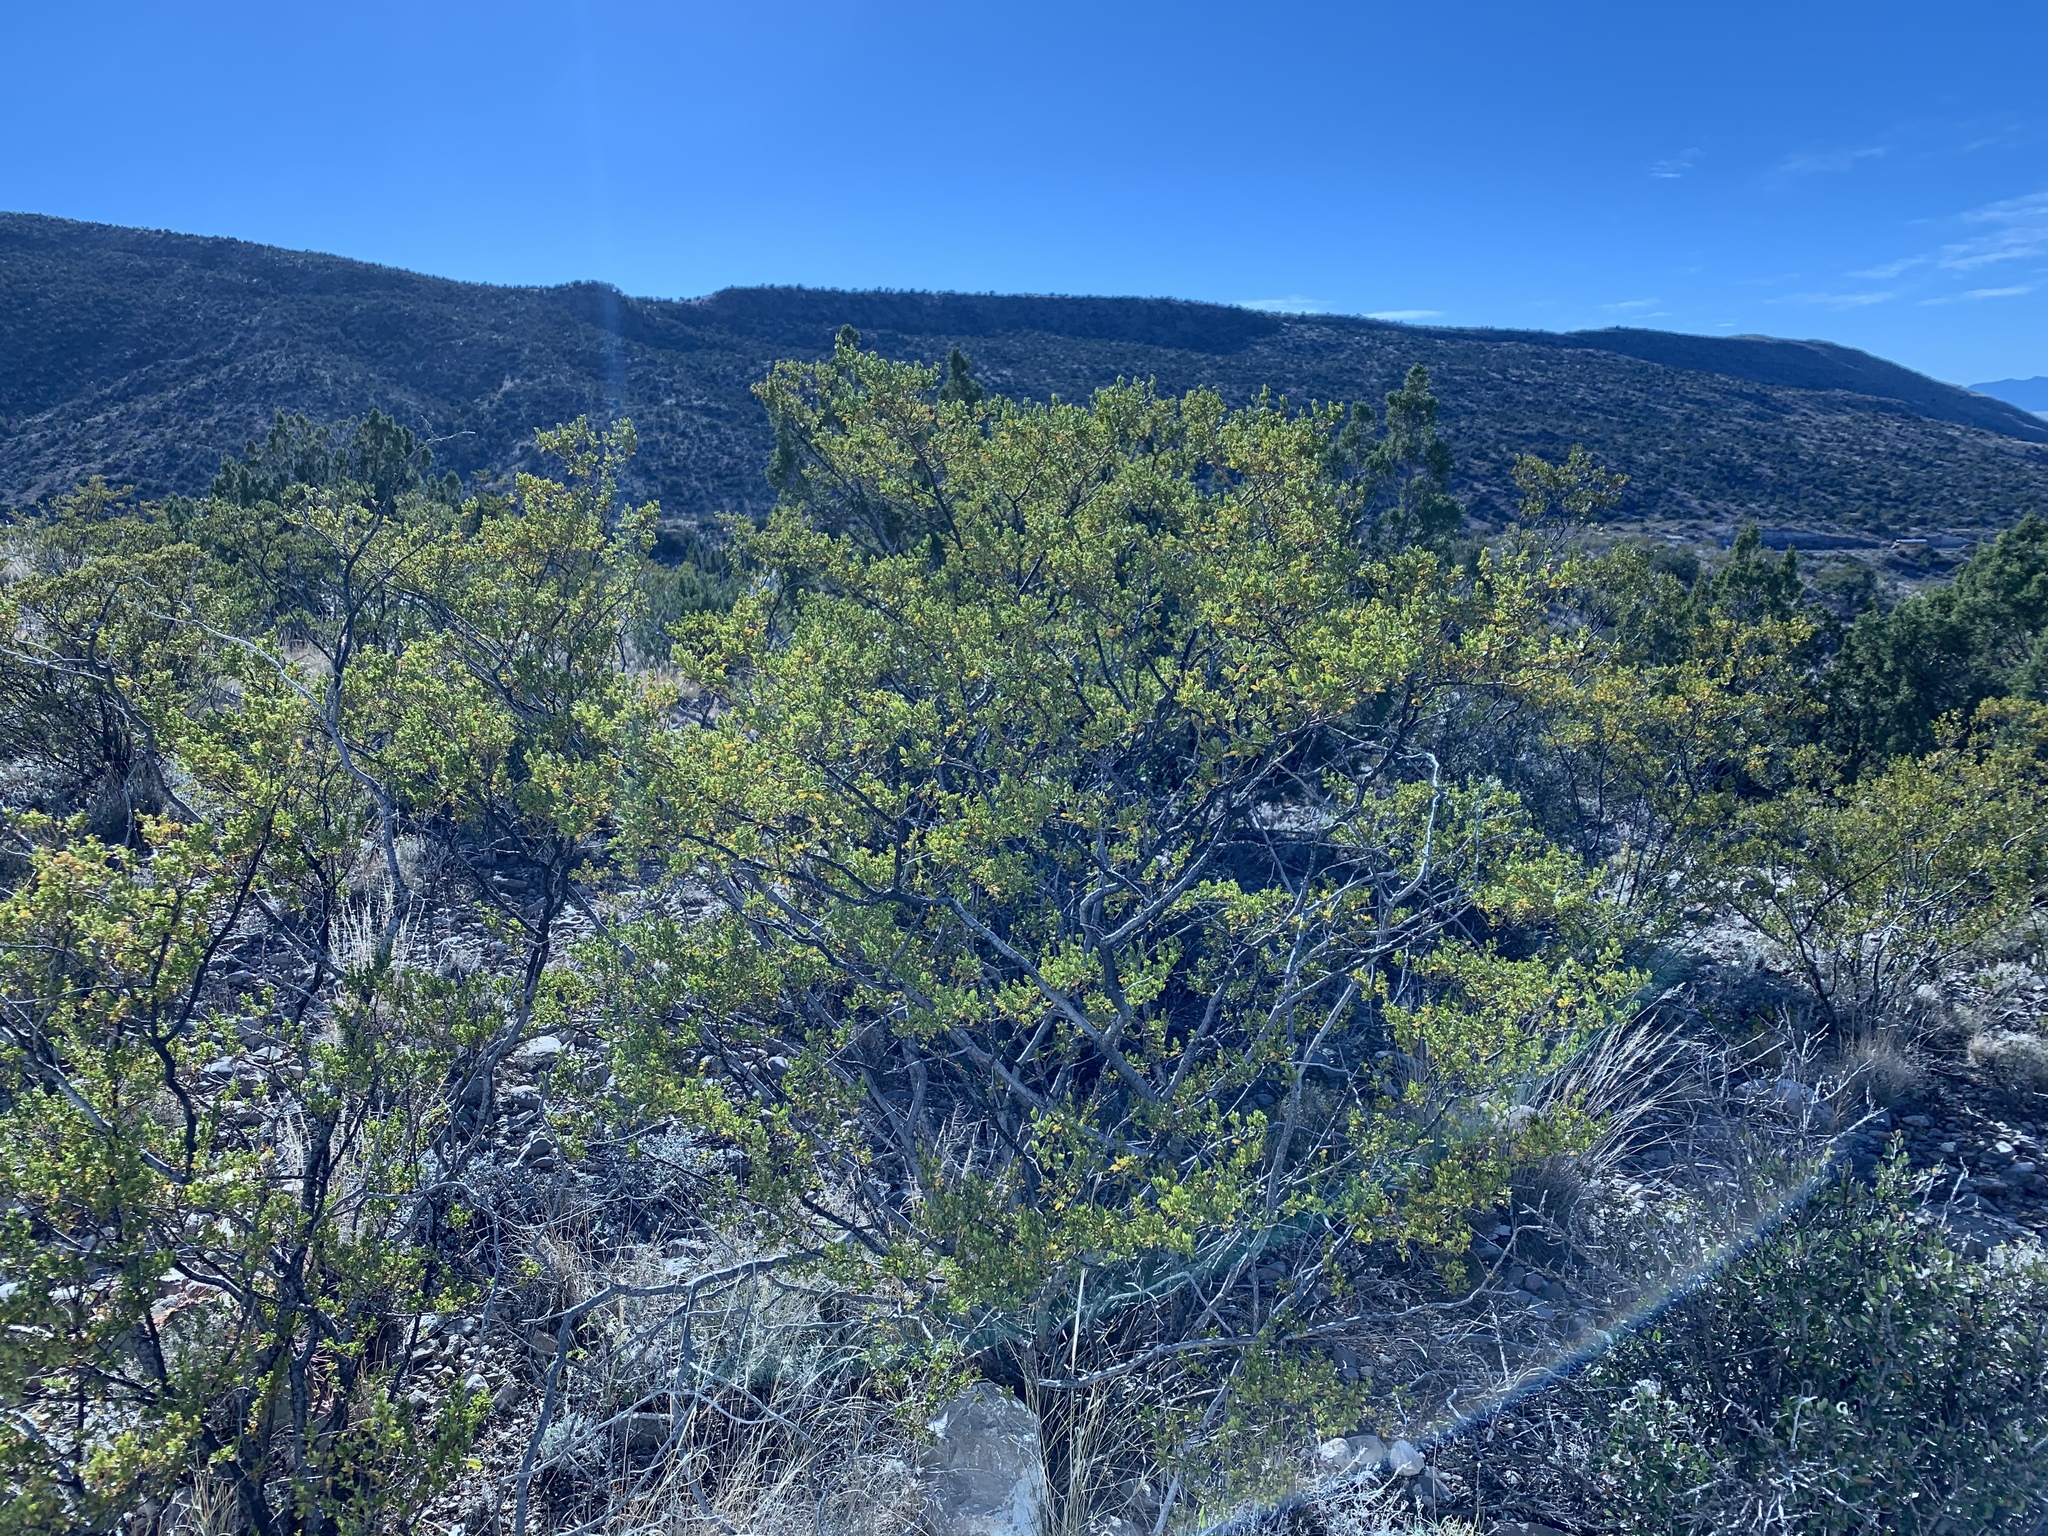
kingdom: Plantae
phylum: Tracheophyta
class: Magnoliopsida
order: Zygophyllales
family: Zygophyllaceae
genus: Larrea
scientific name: Larrea tridentata
